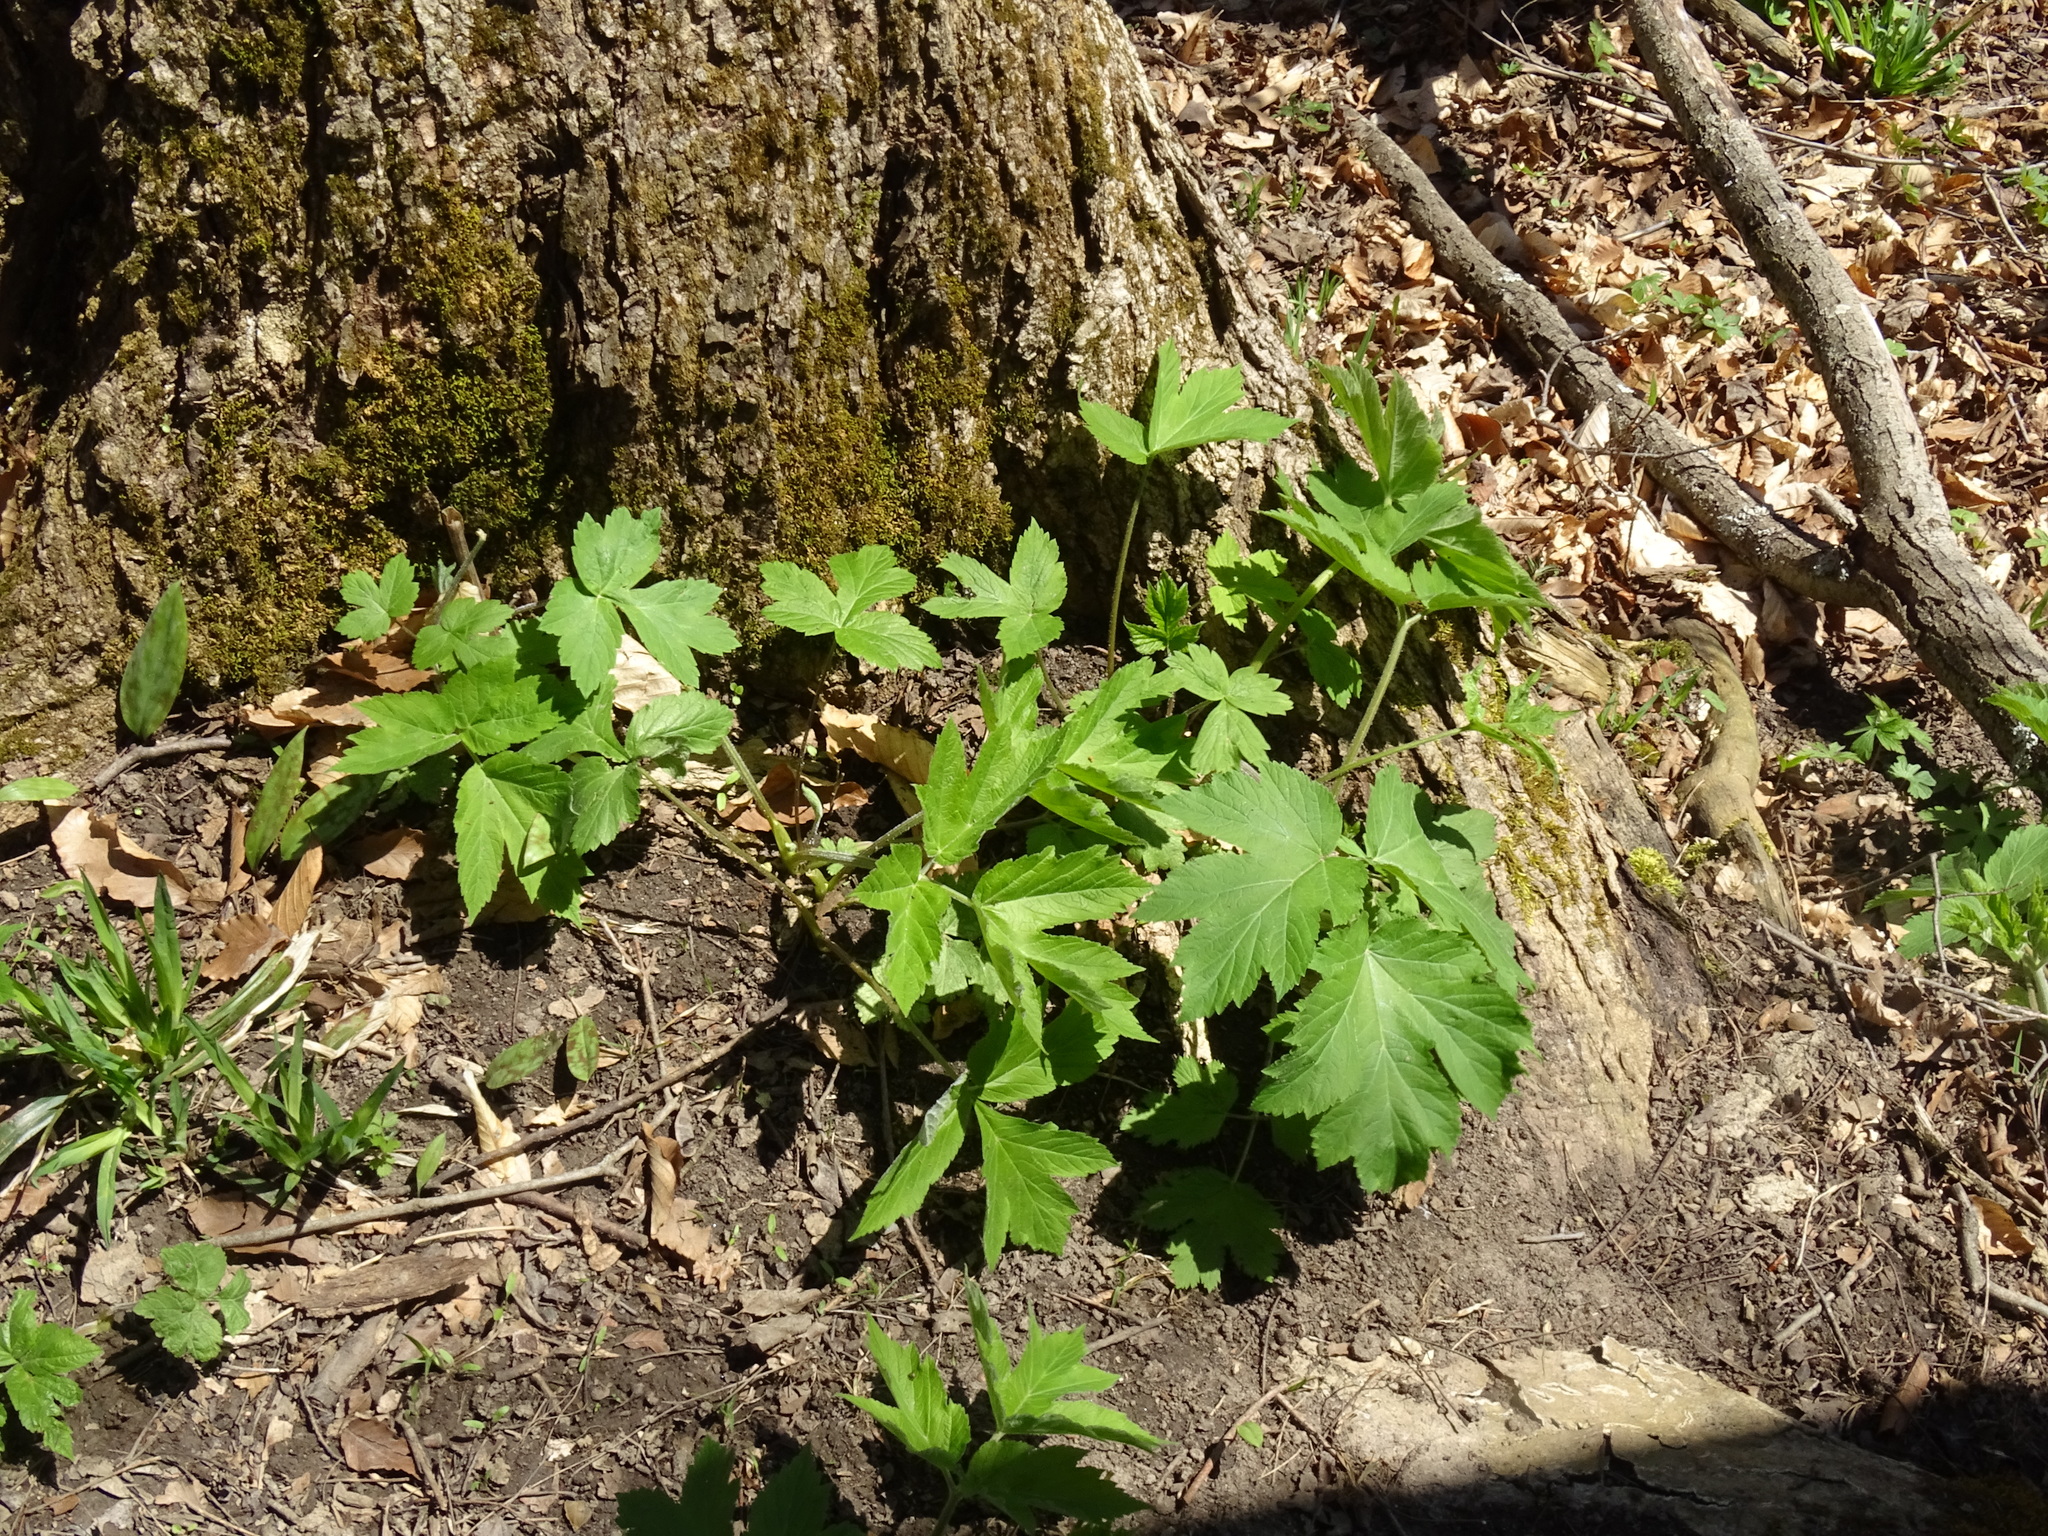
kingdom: Plantae
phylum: Tracheophyta
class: Magnoliopsida
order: Apiales
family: Apiaceae
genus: Heracleum
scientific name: Heracleum maximum
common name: American cow parsnip
